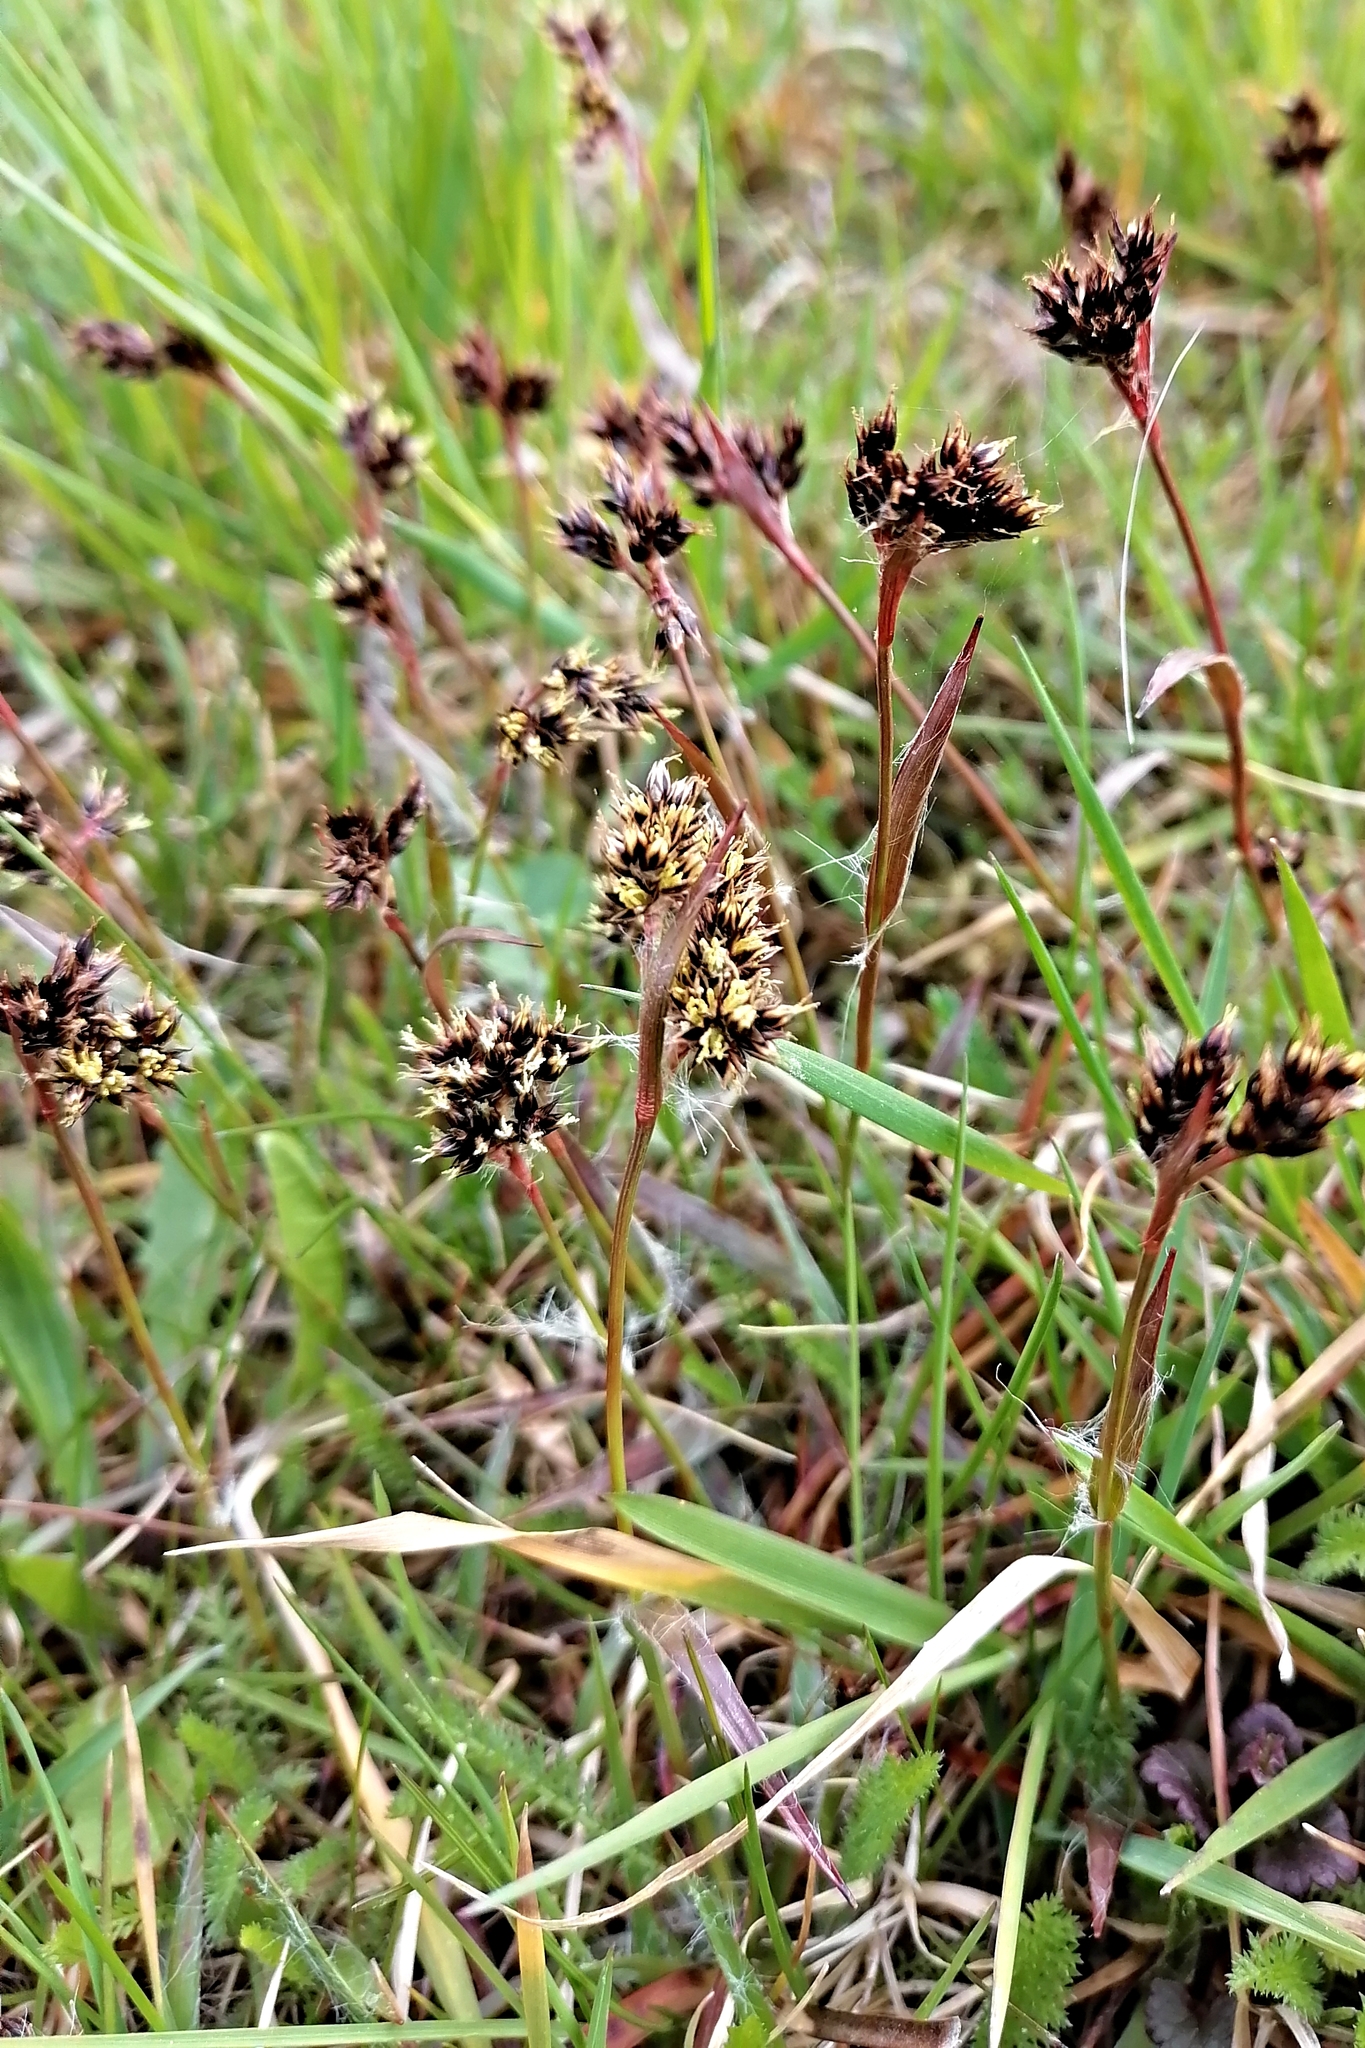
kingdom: Plantae
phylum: Tracheophyta
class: Liliopsida
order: Poales
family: Juncaceae
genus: Luzula
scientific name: Luzula campestris
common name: Field wood-rush
